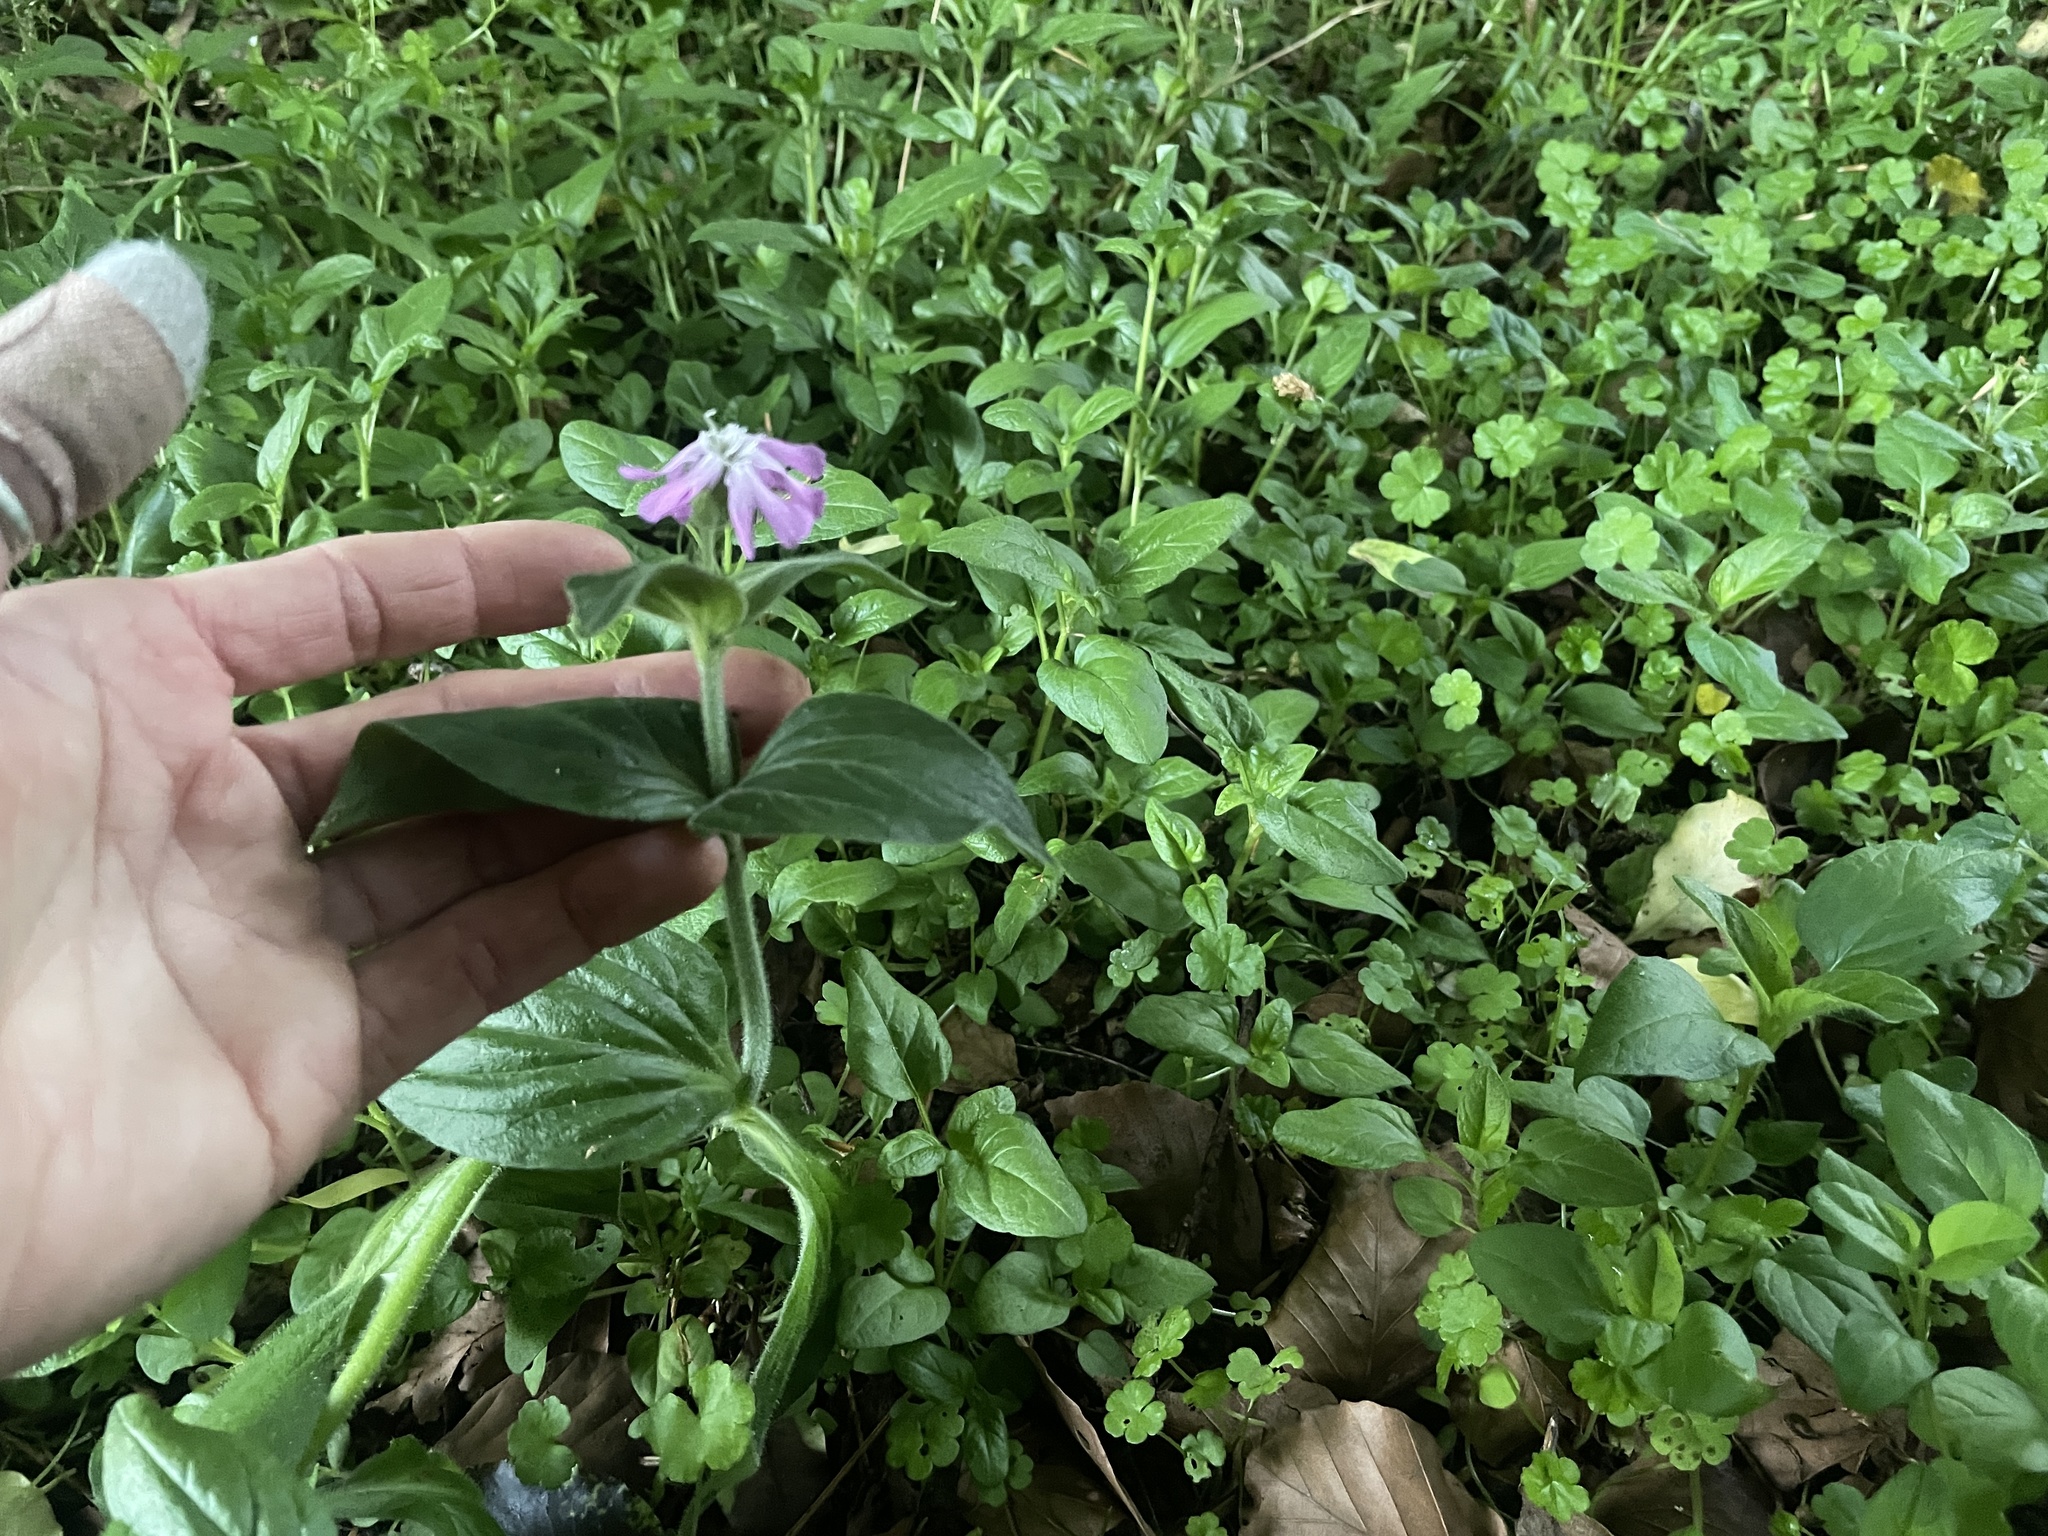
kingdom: Plantae
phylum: Tracheophyta
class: Magnoliopsida
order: Caryophyllales
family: Caryophyllaceae
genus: Silene
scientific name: Silene dioica
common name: Red campion
